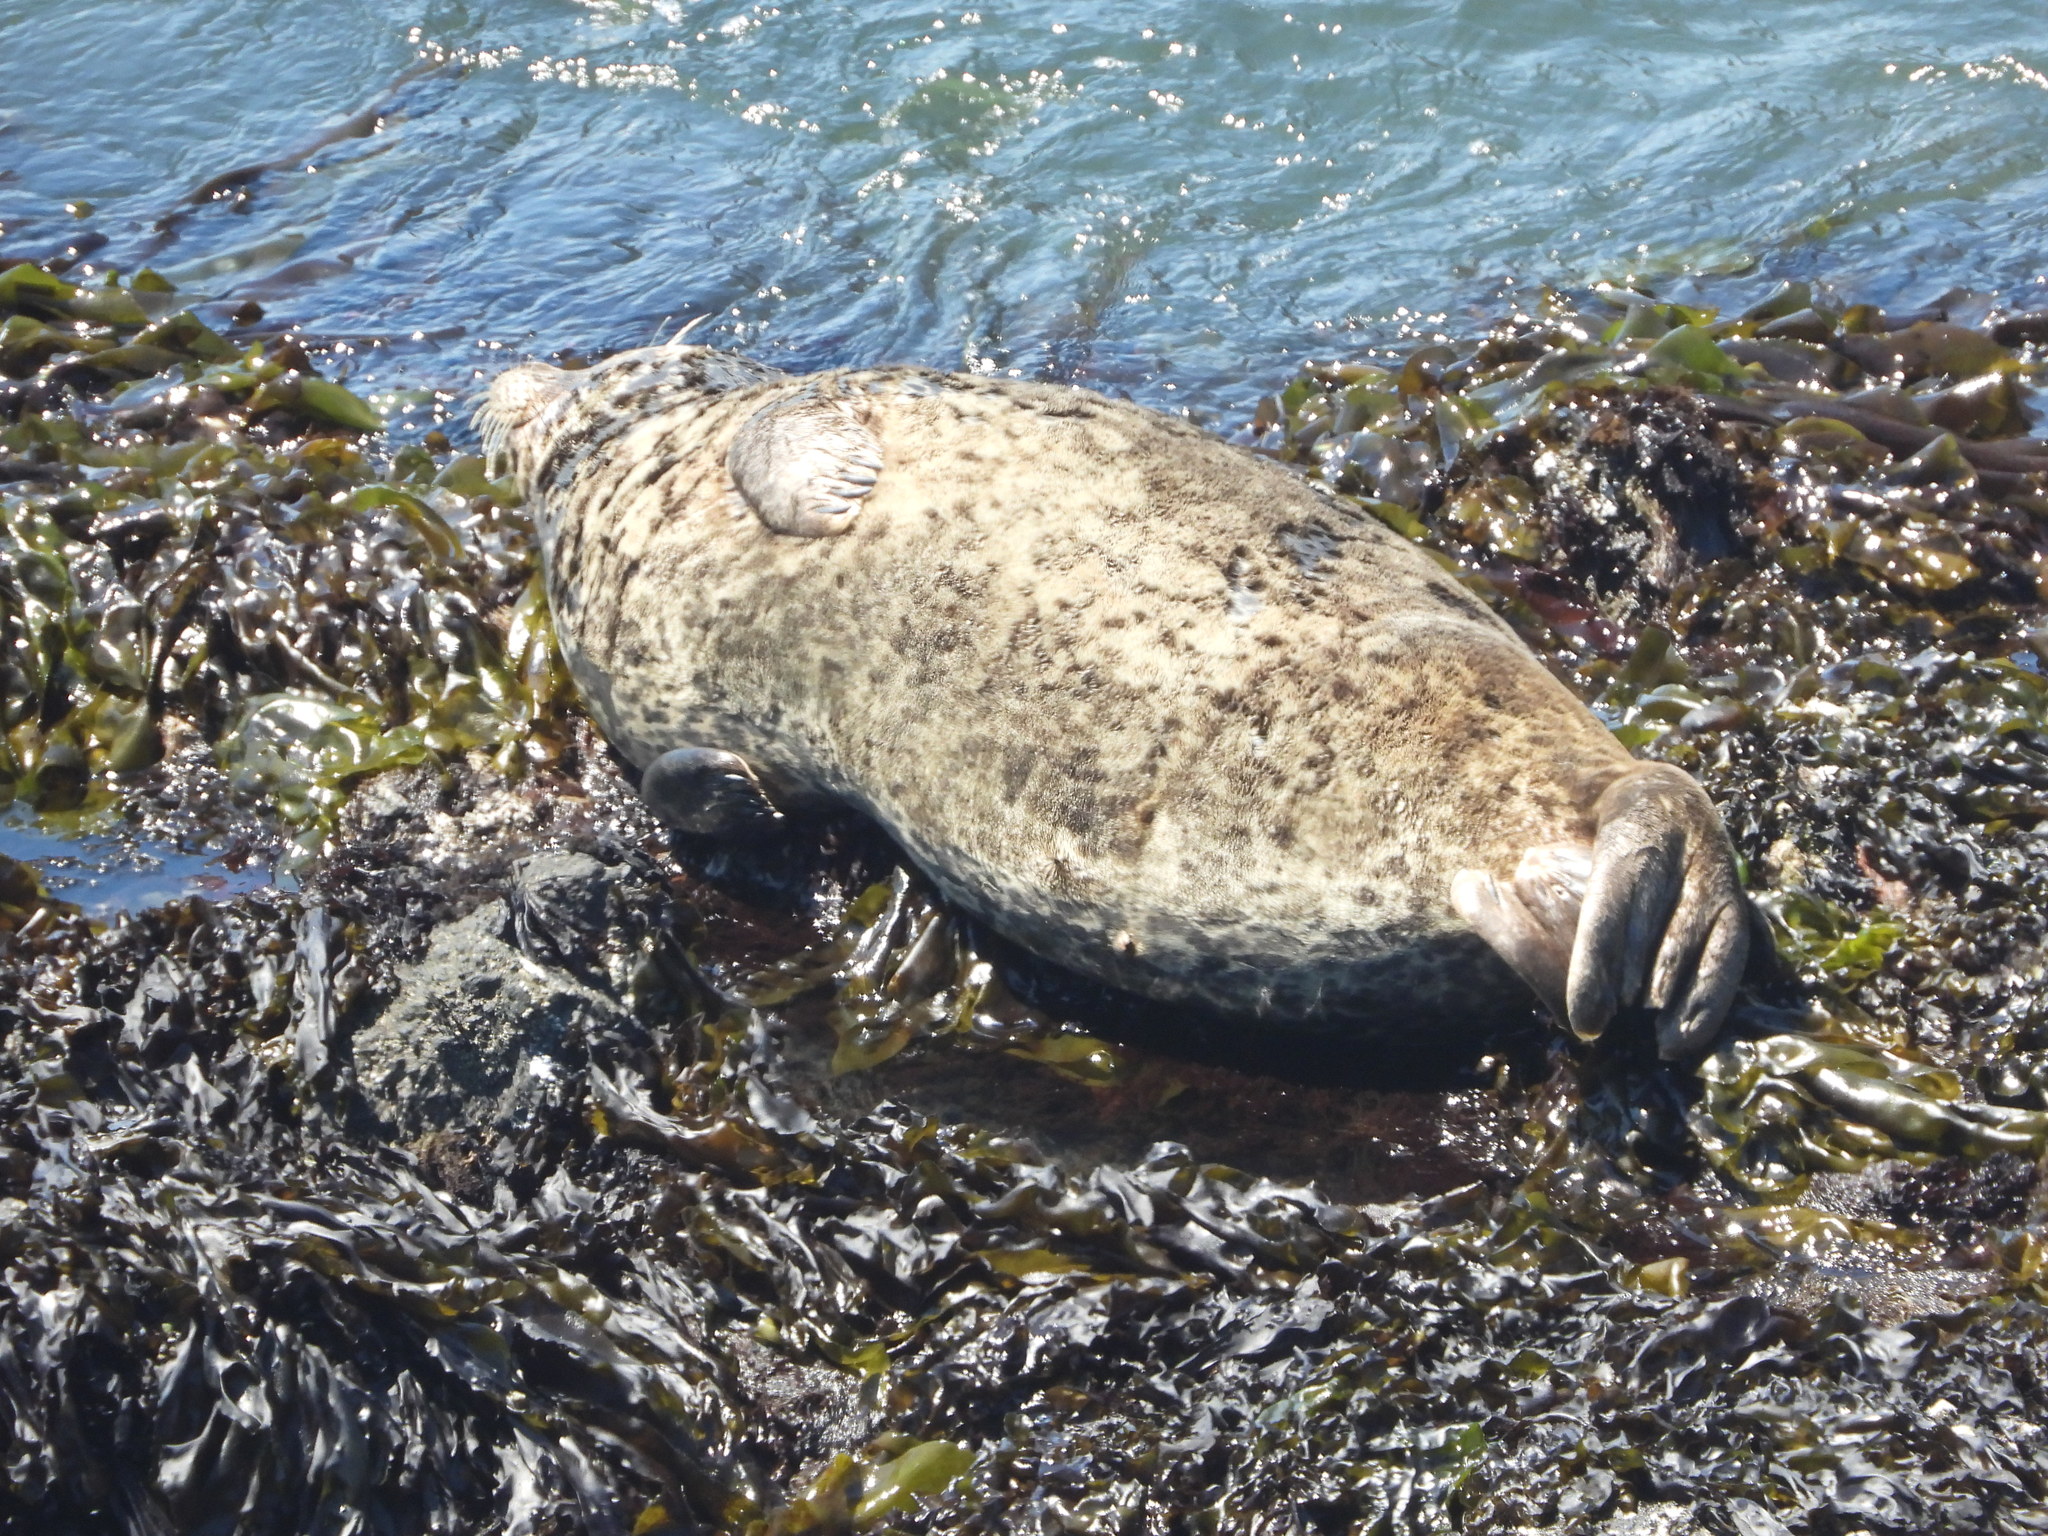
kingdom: Animalia
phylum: Chordata
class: Mammalia
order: Carnivora
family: Phocidae
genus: Phoca
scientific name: Phoca vitulina
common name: Harbor seal
